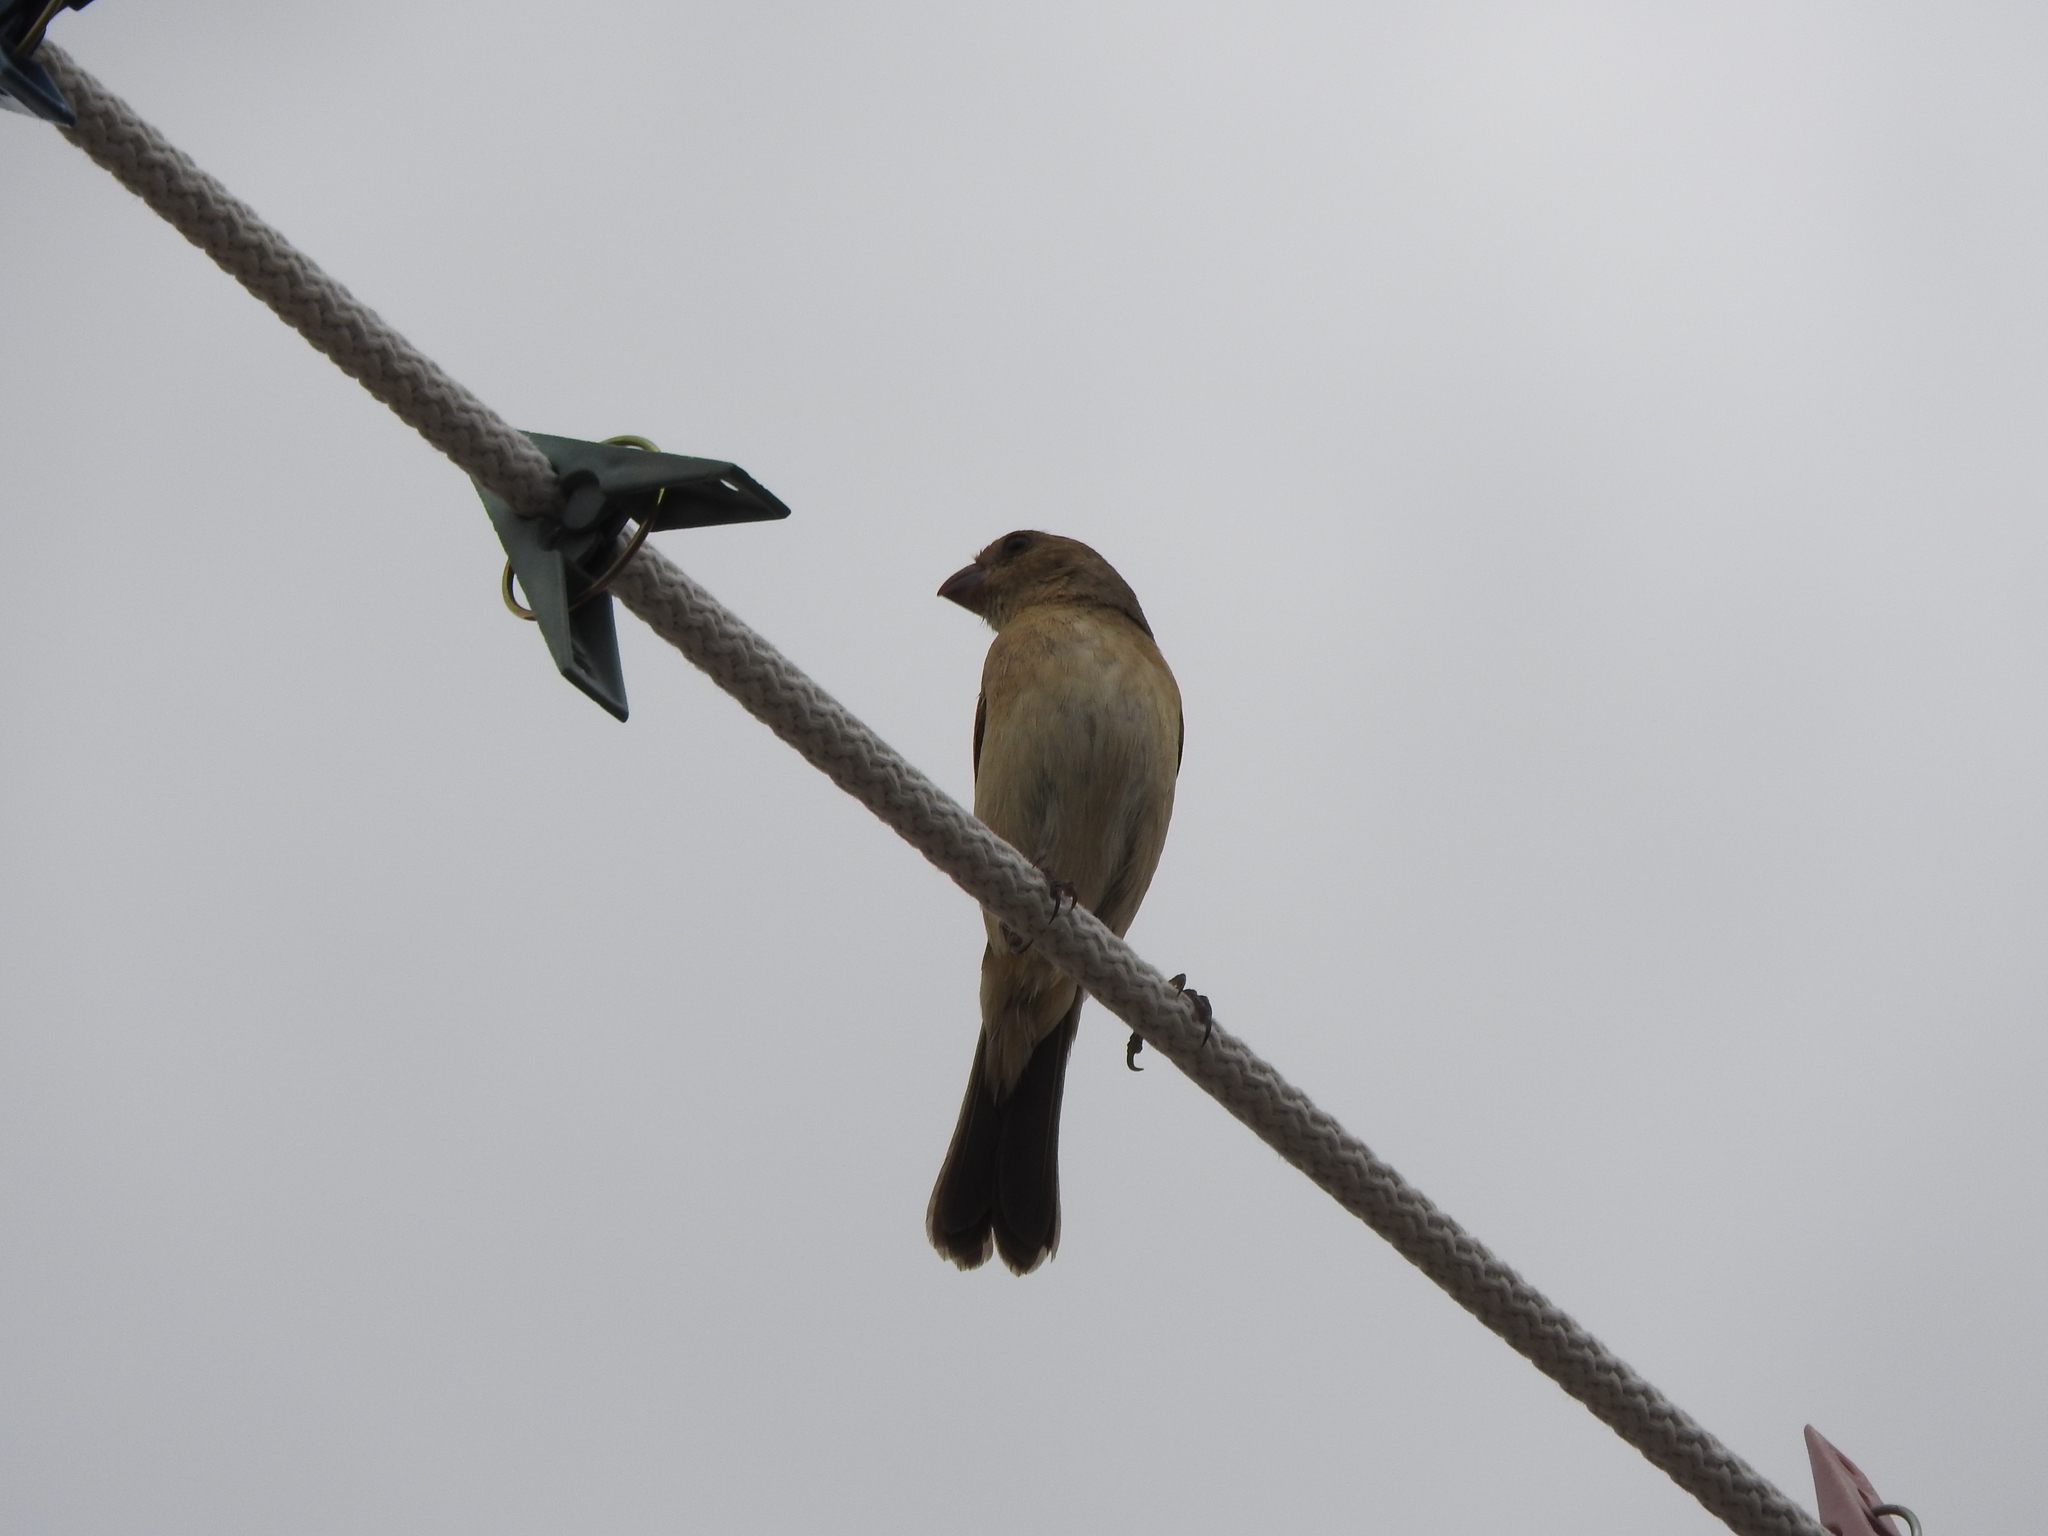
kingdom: Animalia
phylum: Chordata
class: Aves
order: Passeriformes
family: Thraupidae
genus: Sporophila
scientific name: Sporophila torqueola
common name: White-collared seedeater
